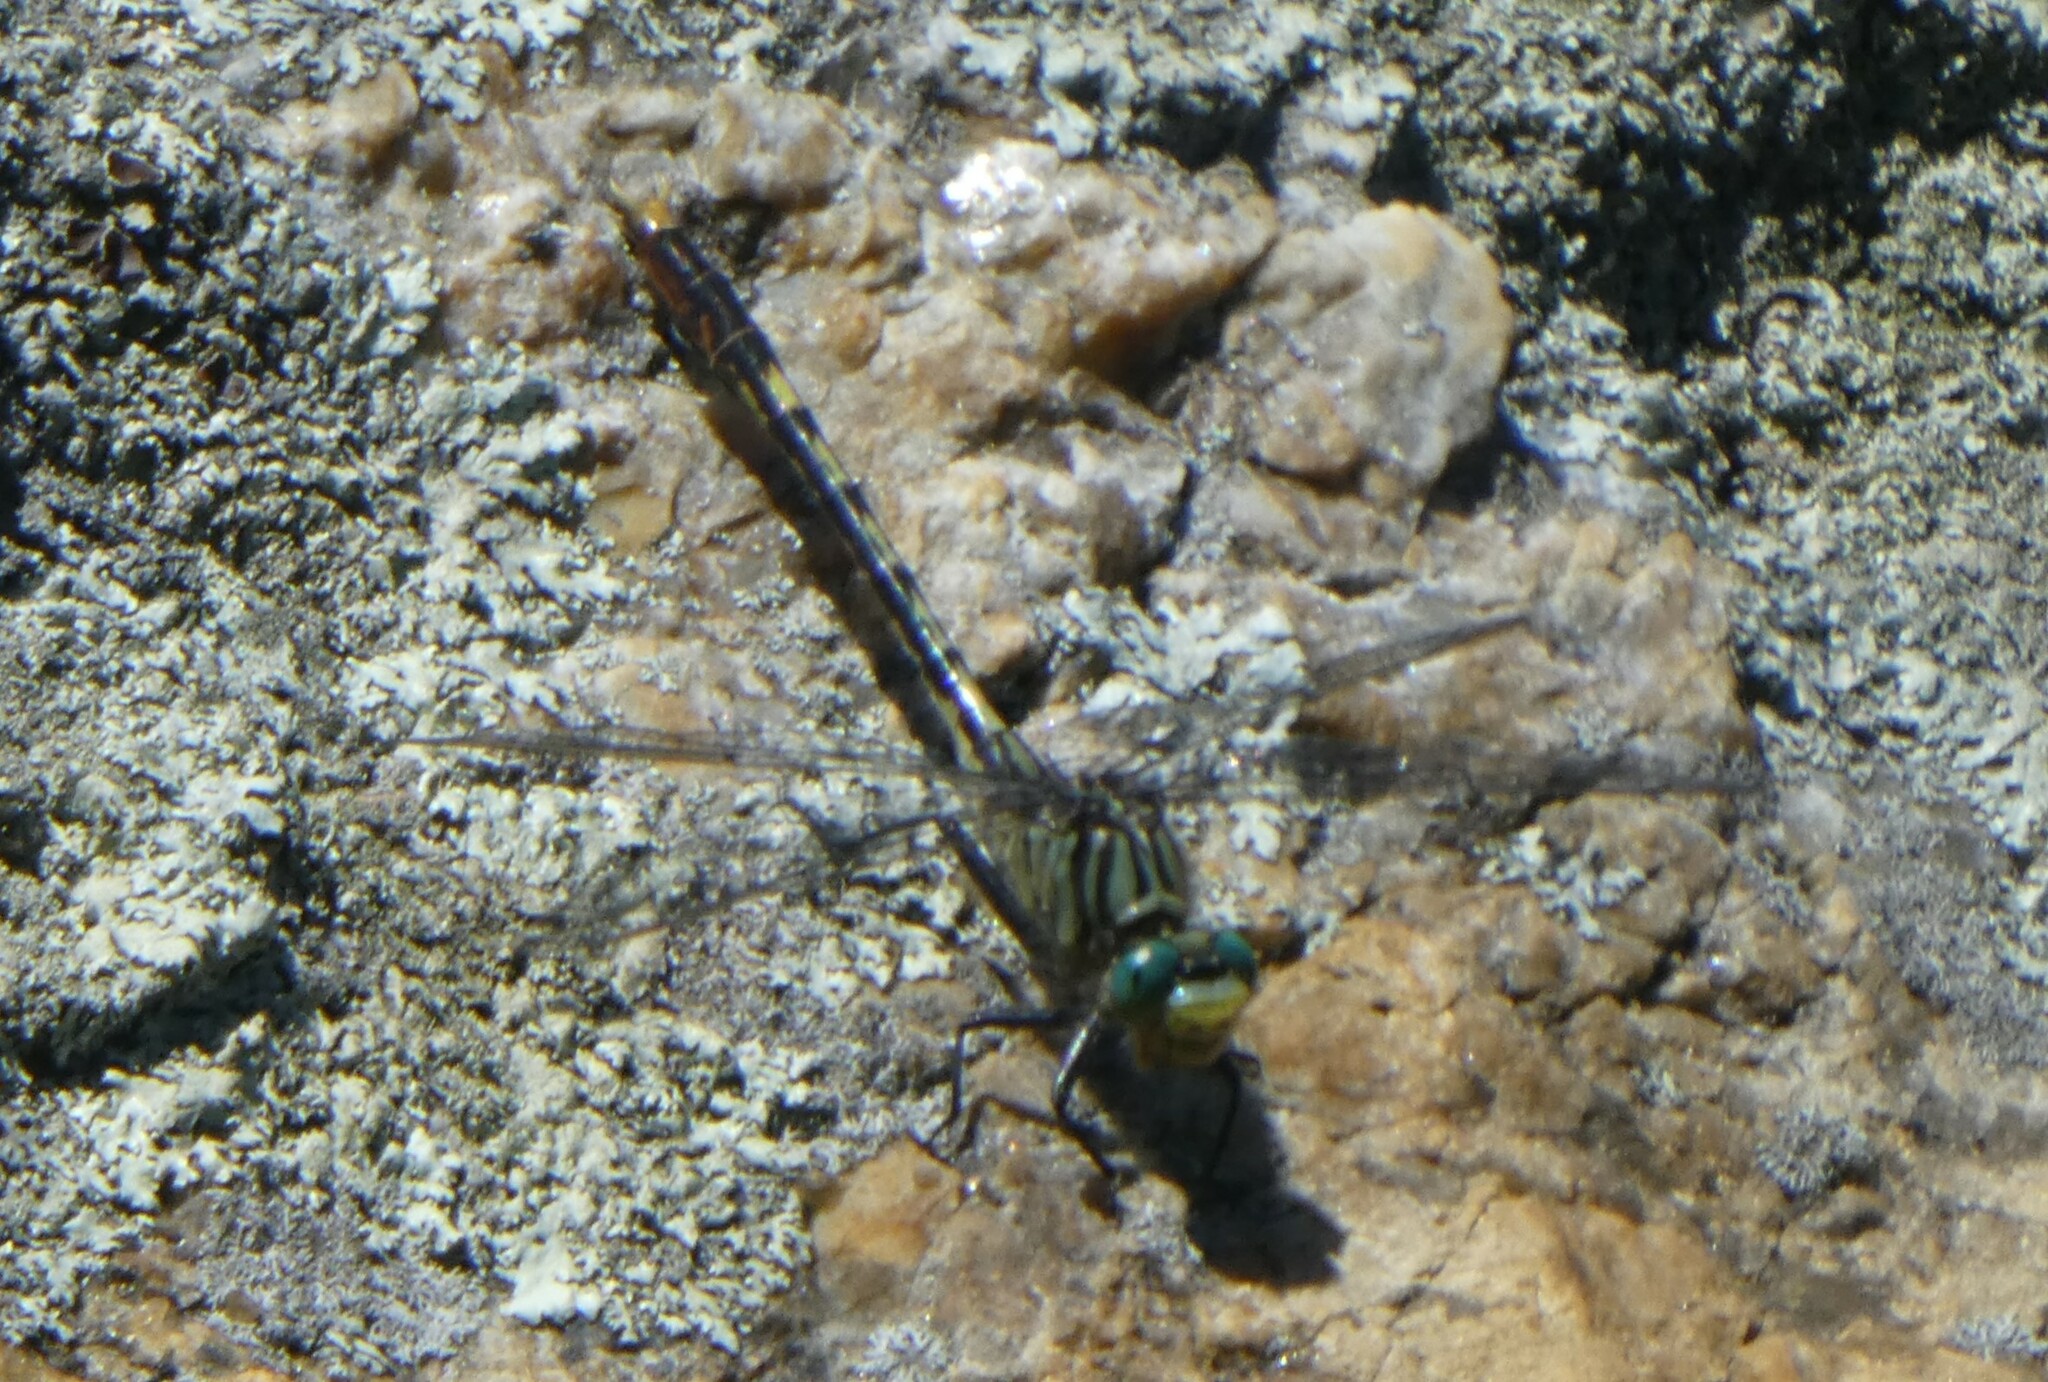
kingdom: Animalia
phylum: Arthropoda
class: Insecta
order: Odonata
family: Gomphidae
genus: Arigomphus
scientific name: Arigomphus villosipes
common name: Unicorn clubtail
